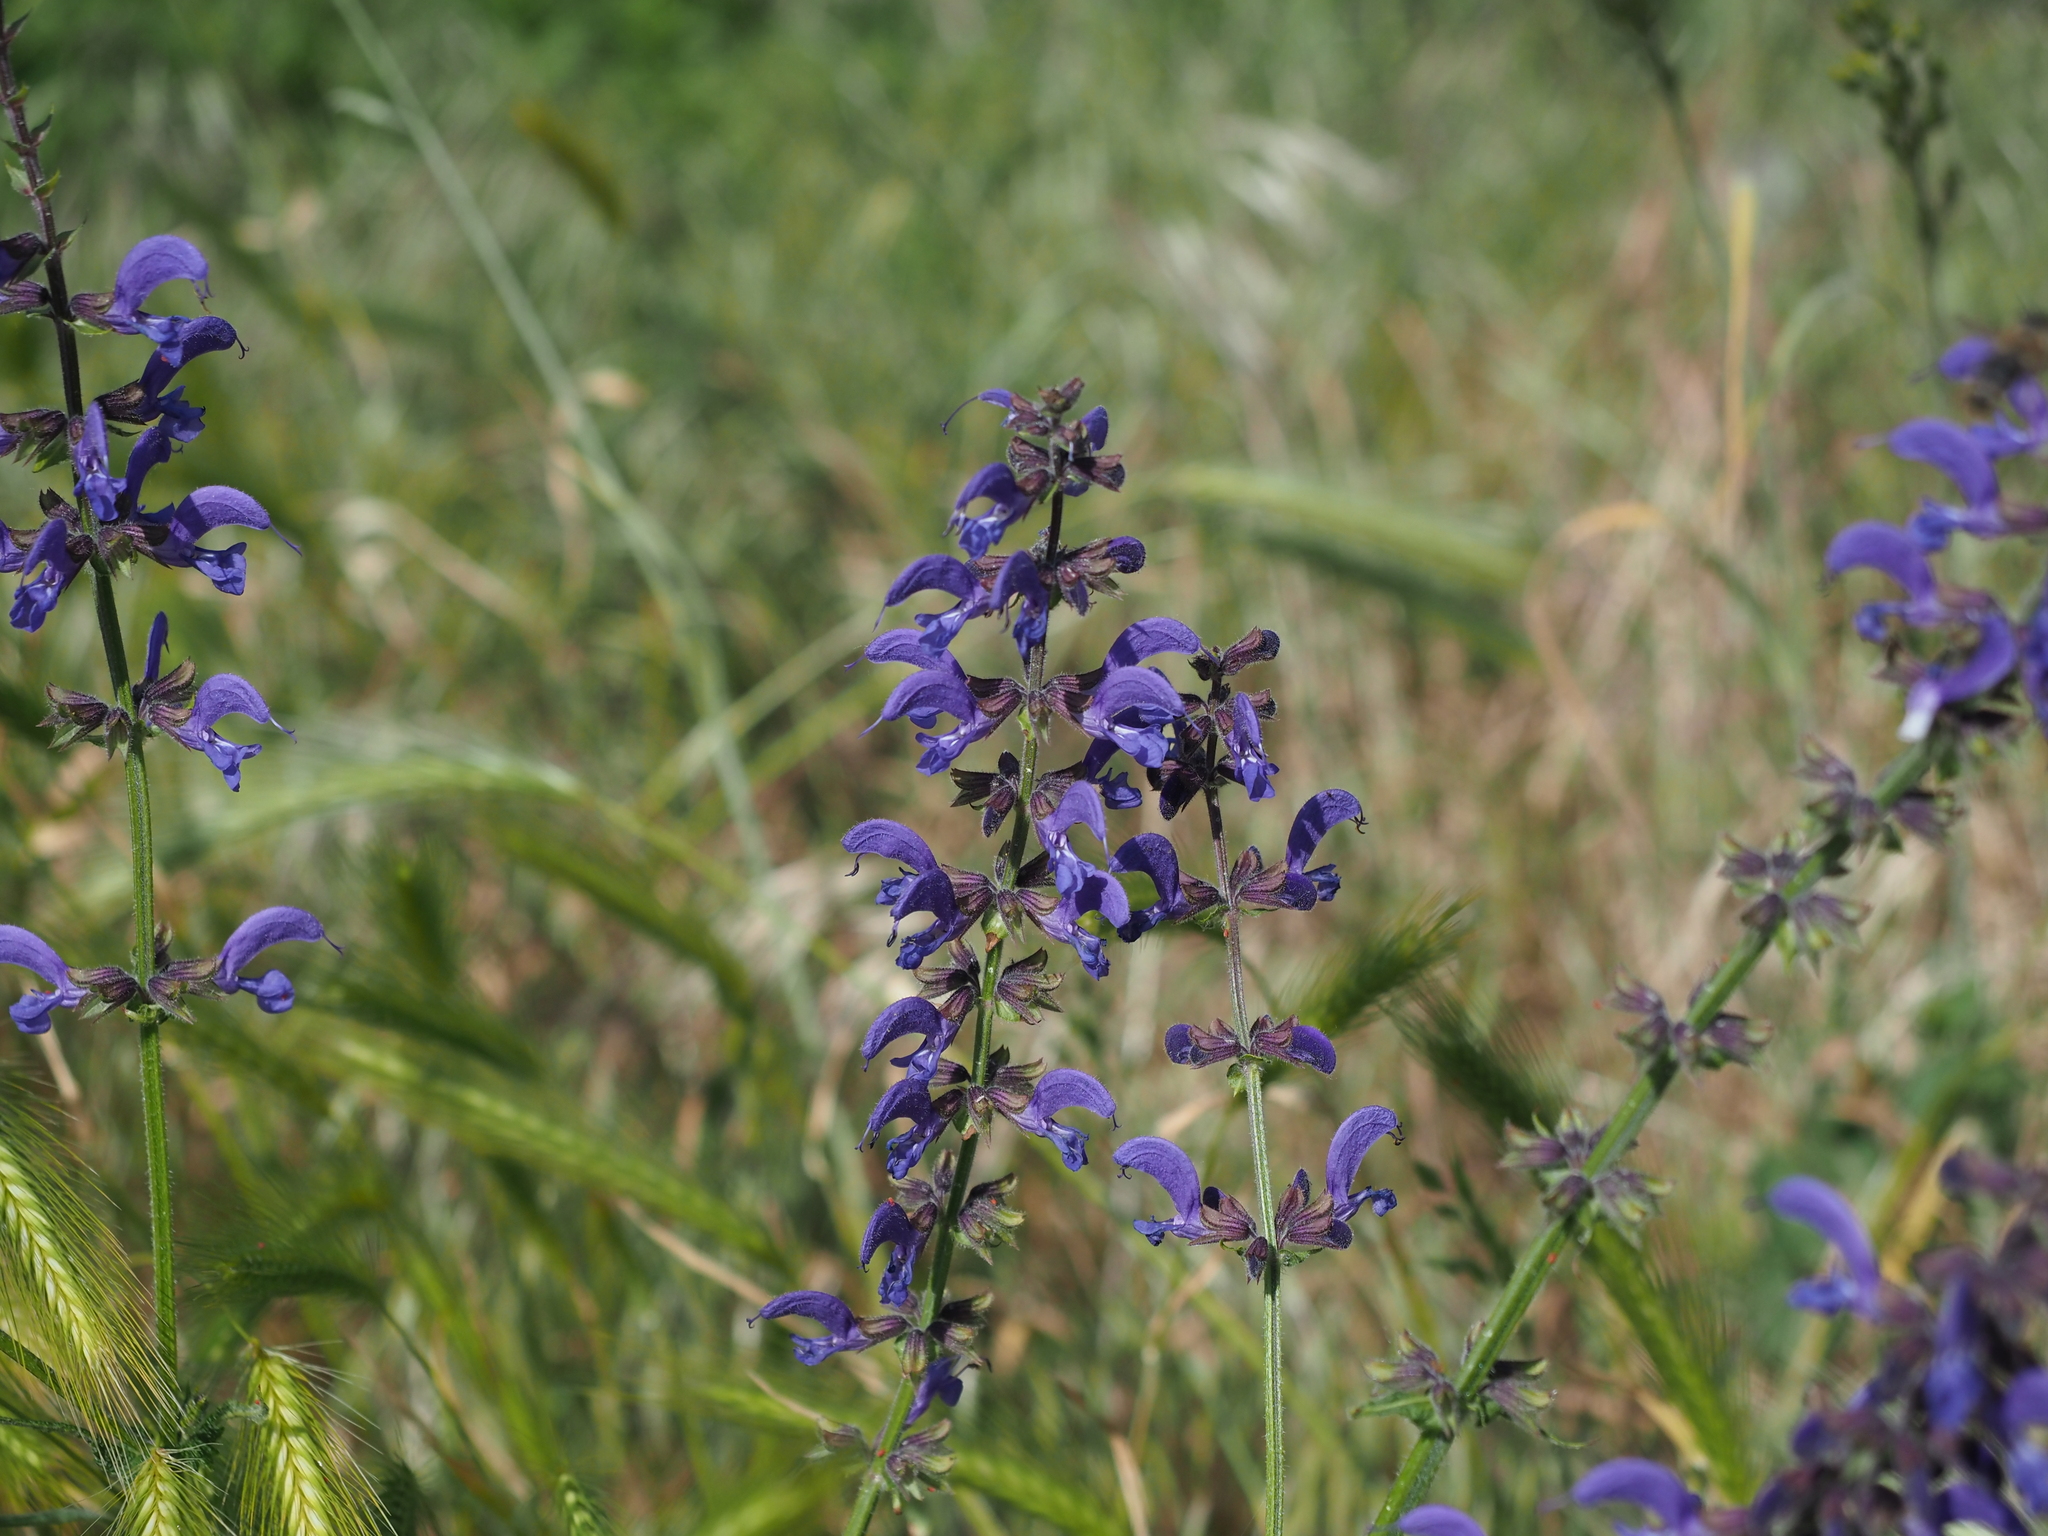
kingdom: Plantae
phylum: Tracheophyta
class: Magnoliopsida
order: Lamiales
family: Lamiaceae
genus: Salvia
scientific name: Salvia pratensis
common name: Meadow sage
